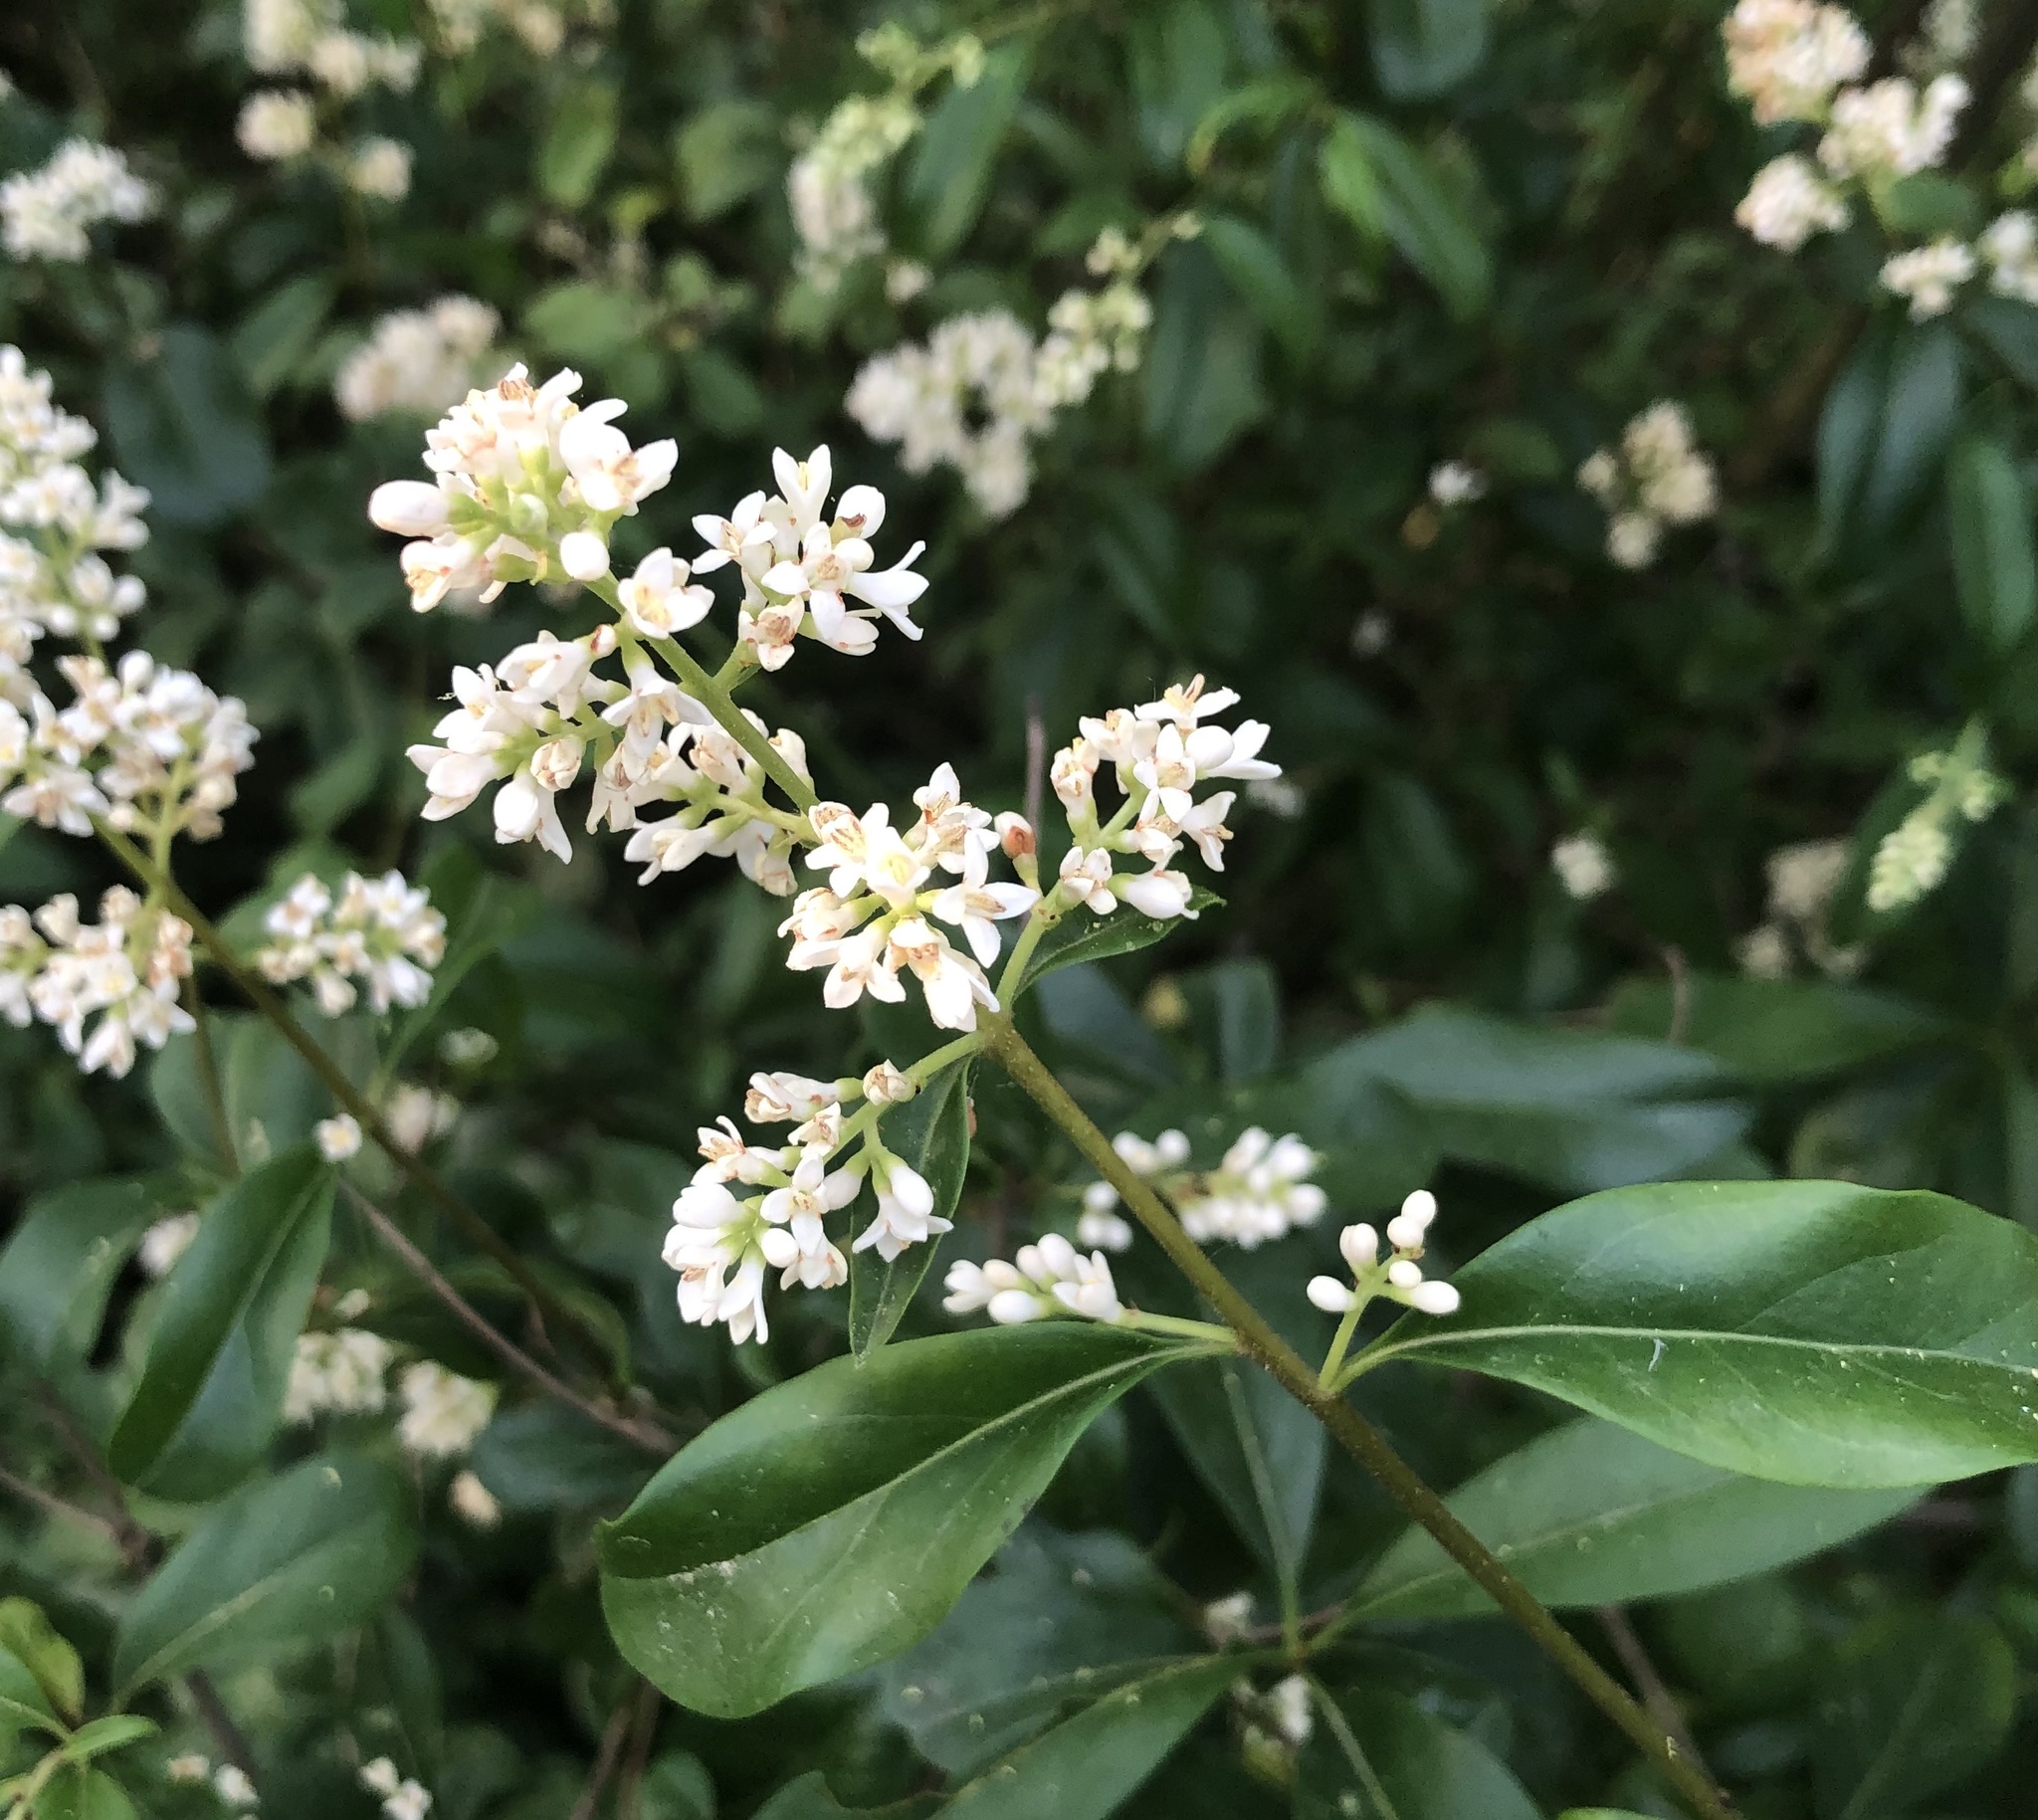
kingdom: Plantae
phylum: Tracheophyta
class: Magnoliopsida
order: Lamiales
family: Oleaceae
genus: Ligustrum
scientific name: Ligustrum vulgare
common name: Wild privet
